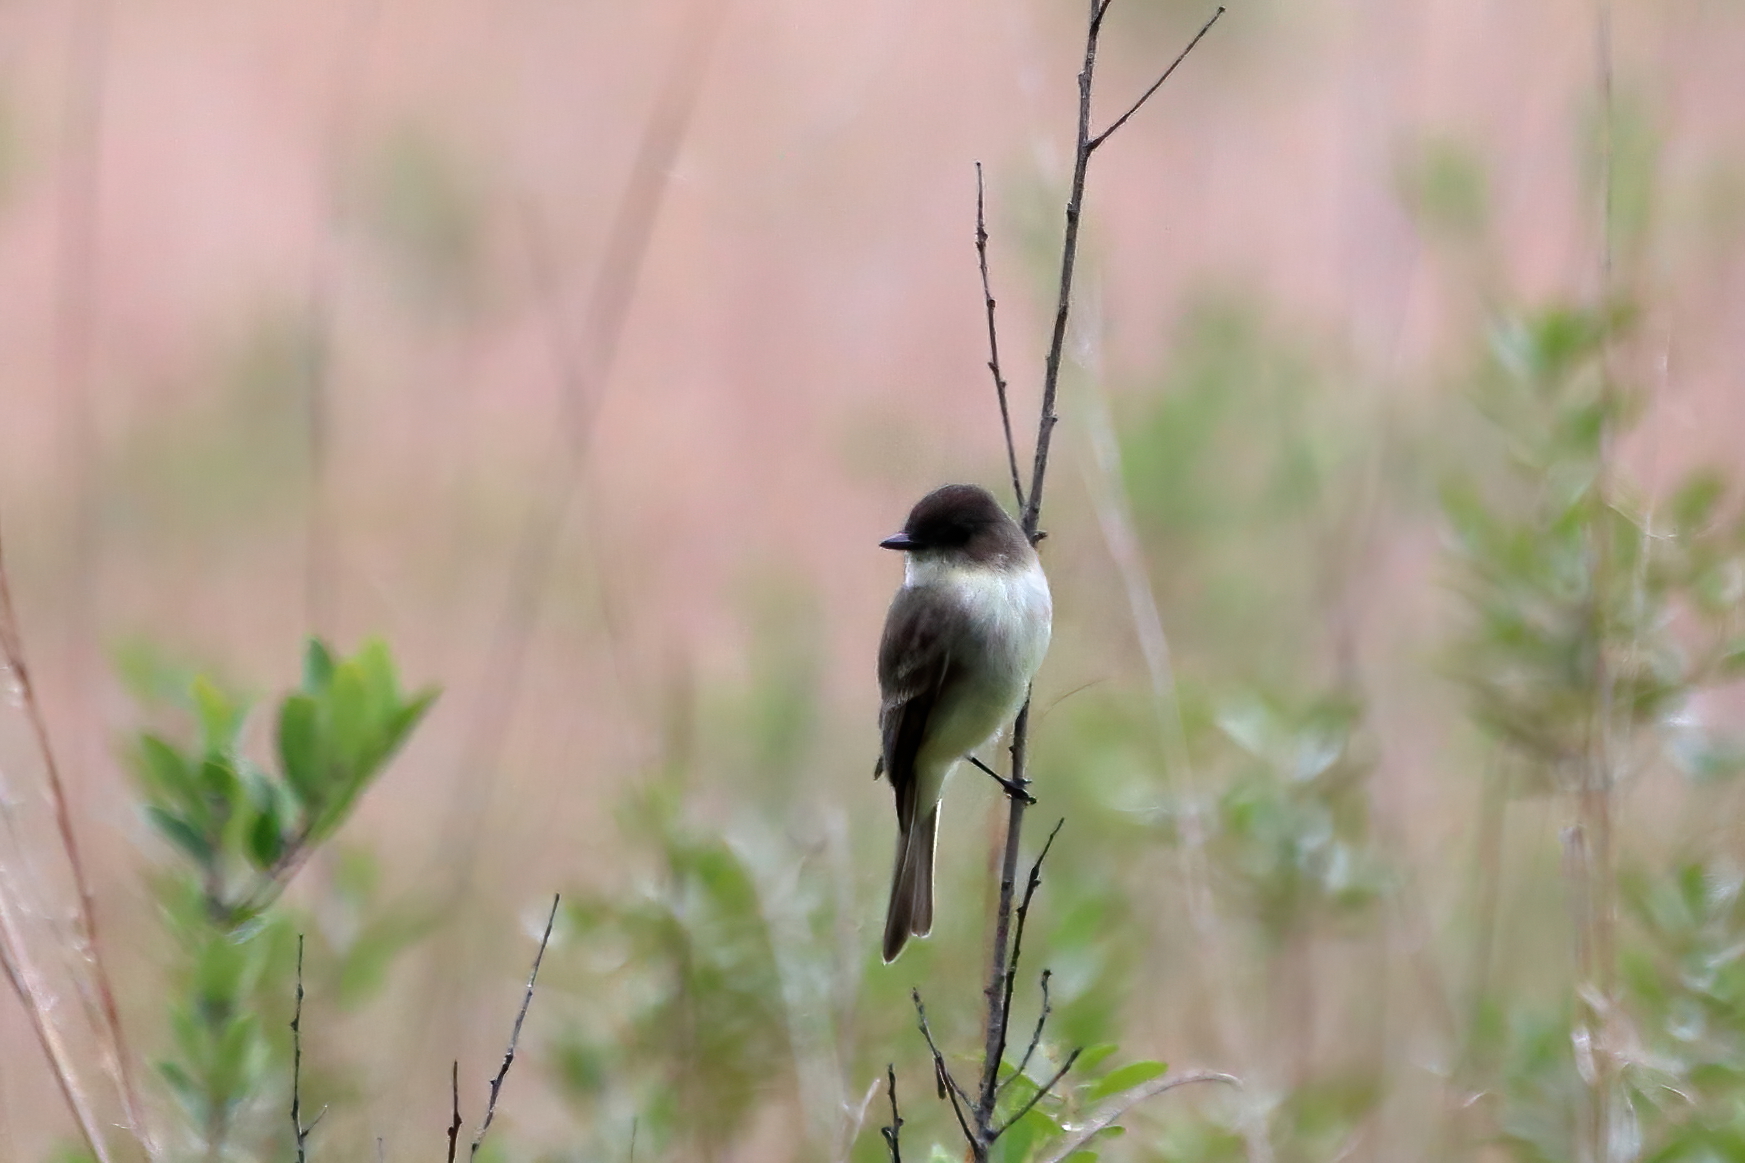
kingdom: Animalia
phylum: Chordata
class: Aves
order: Passeriformes
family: Tyrannidae
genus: Sayornis
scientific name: Sayornis phoebe
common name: Eastern phoebe
